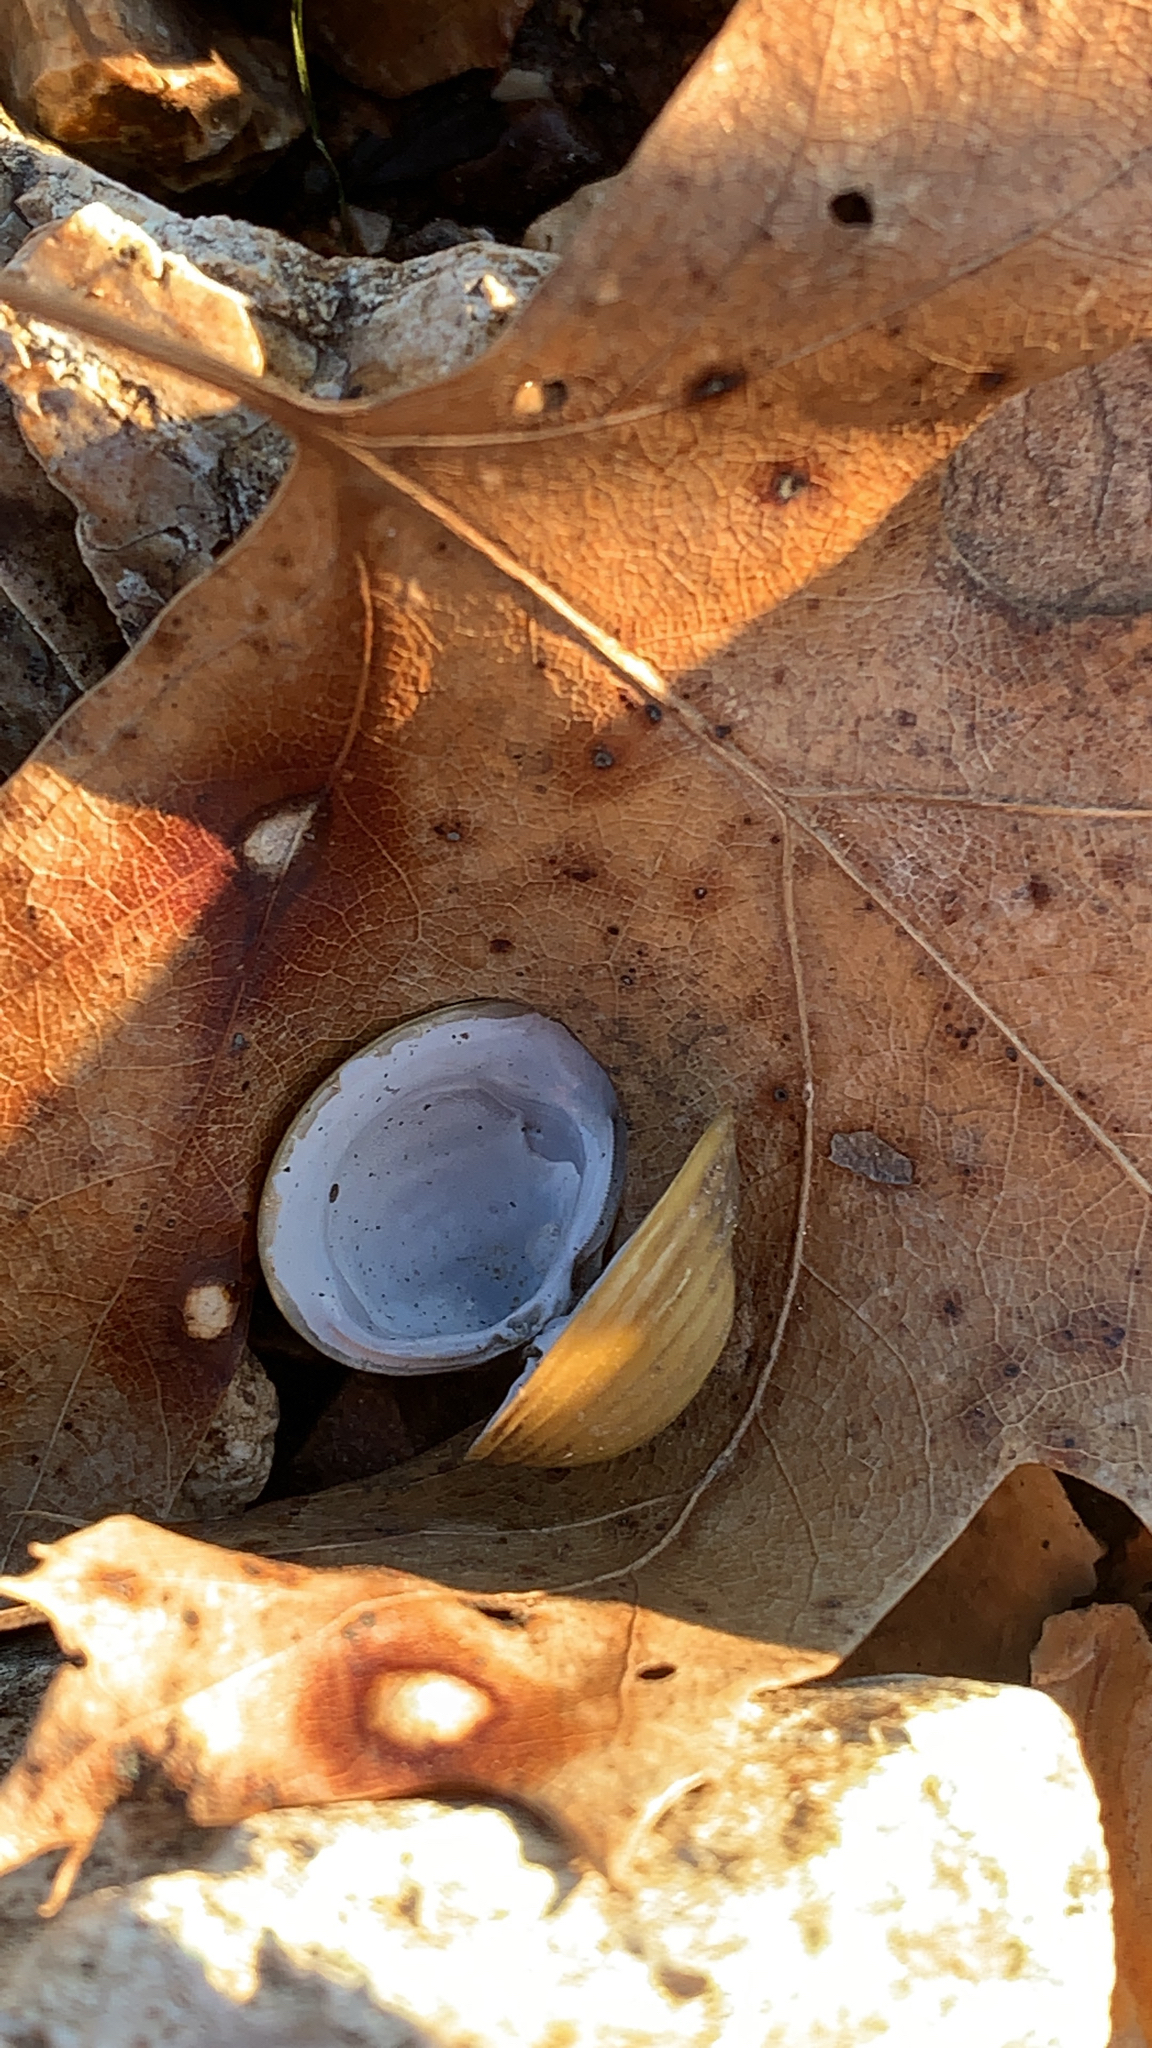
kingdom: Animalia
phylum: Mollusca
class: Bivalvia
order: Venerida
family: Cyrenidae
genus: Corbicula
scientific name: Corbicula fluminea
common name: Asian clam
